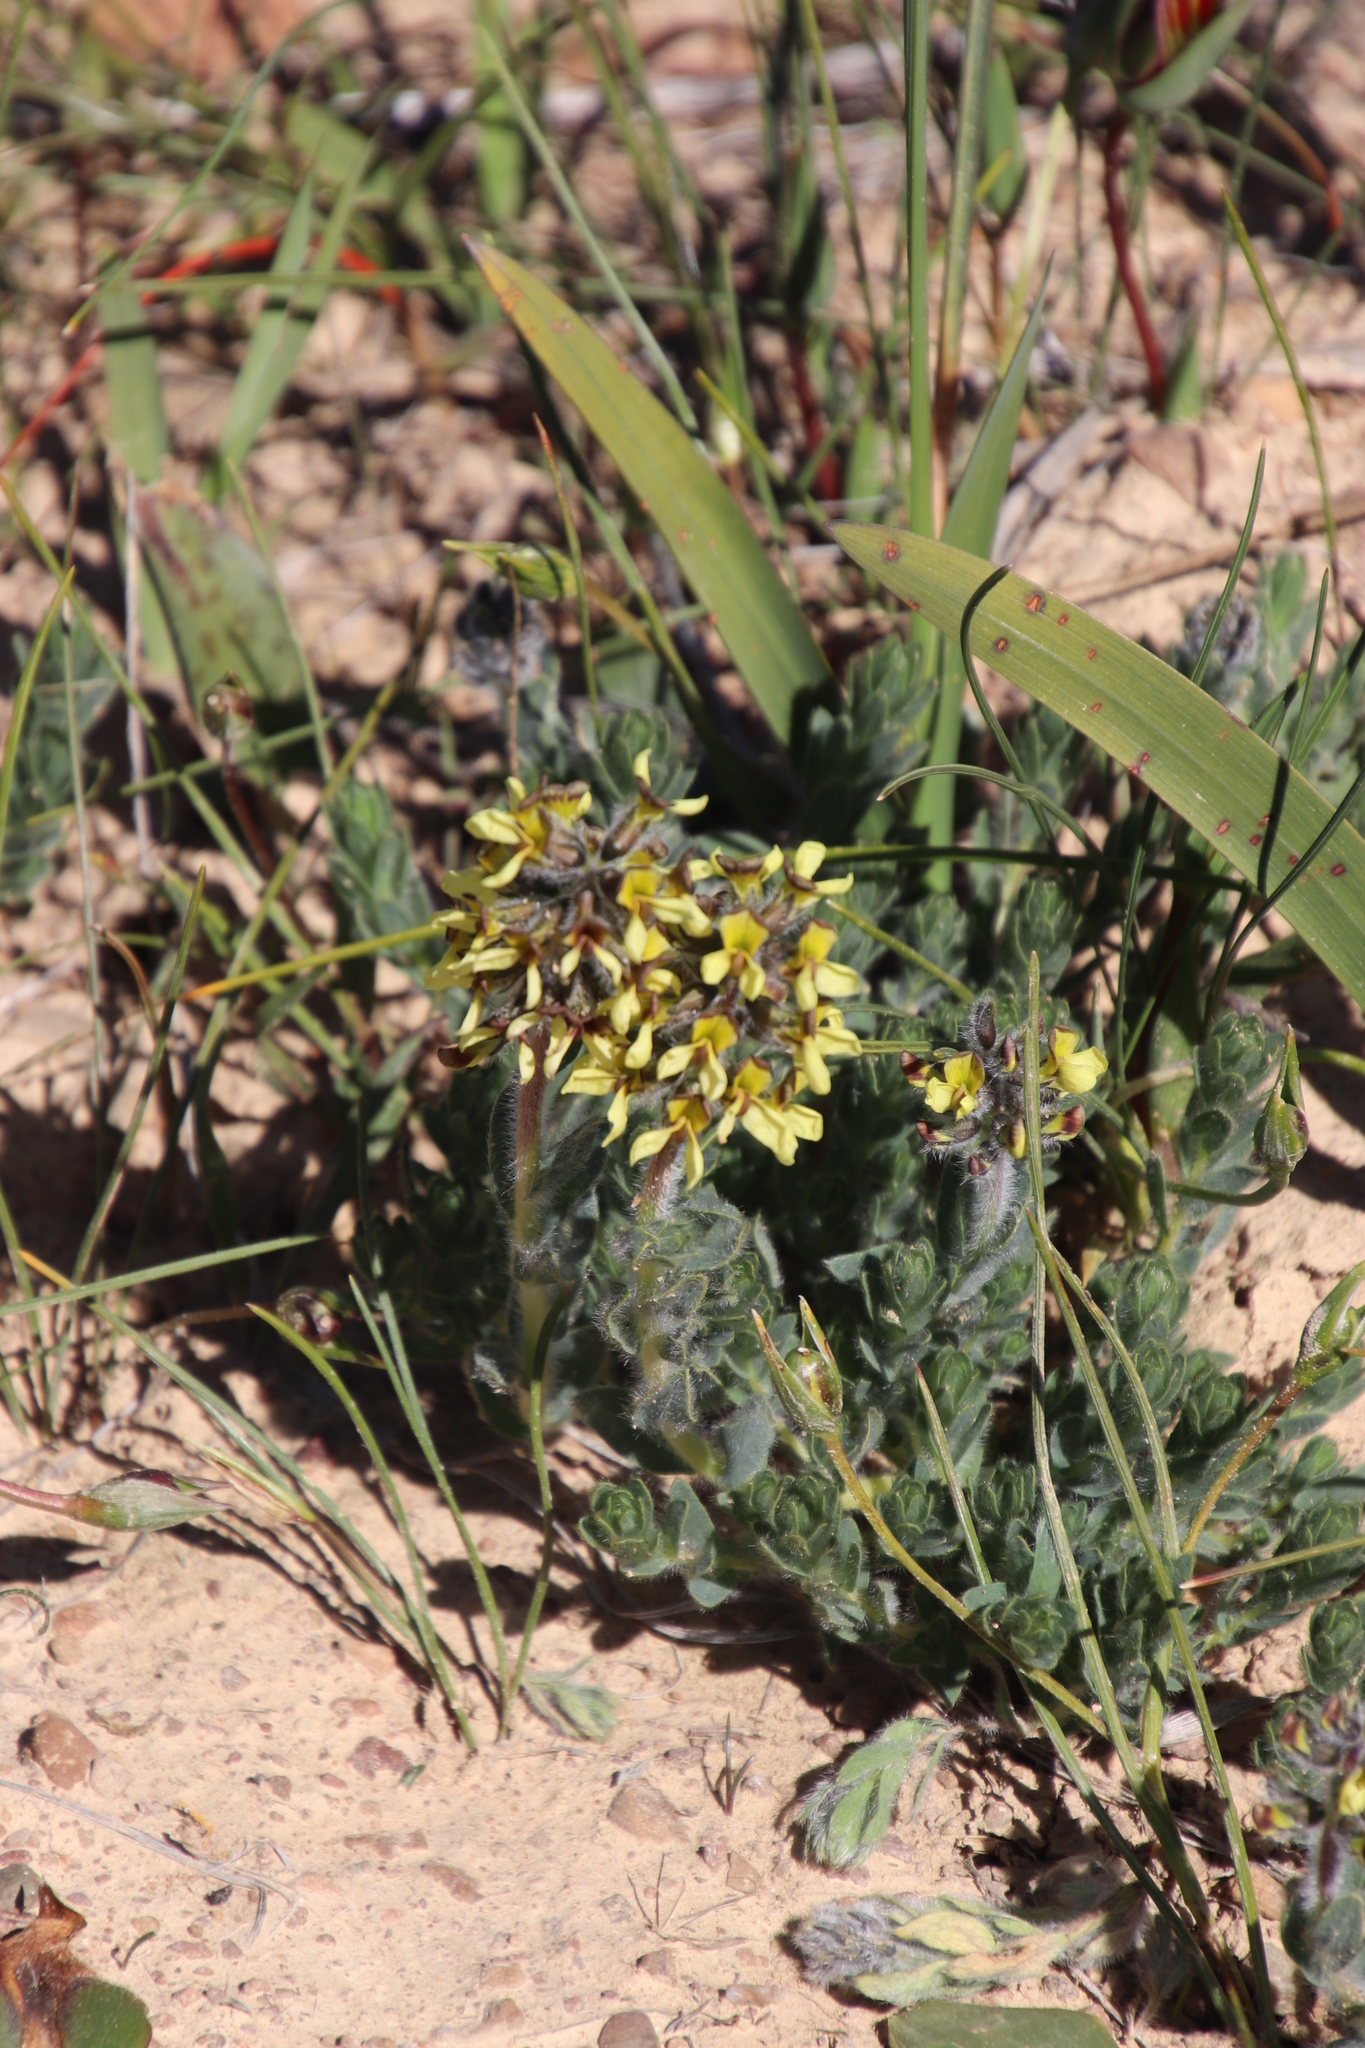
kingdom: Plantae
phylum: Tracheophyta
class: Magnoliopsida
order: Fabales
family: Fabaceae
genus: Euchlora
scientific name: Euchlora hirsuta
